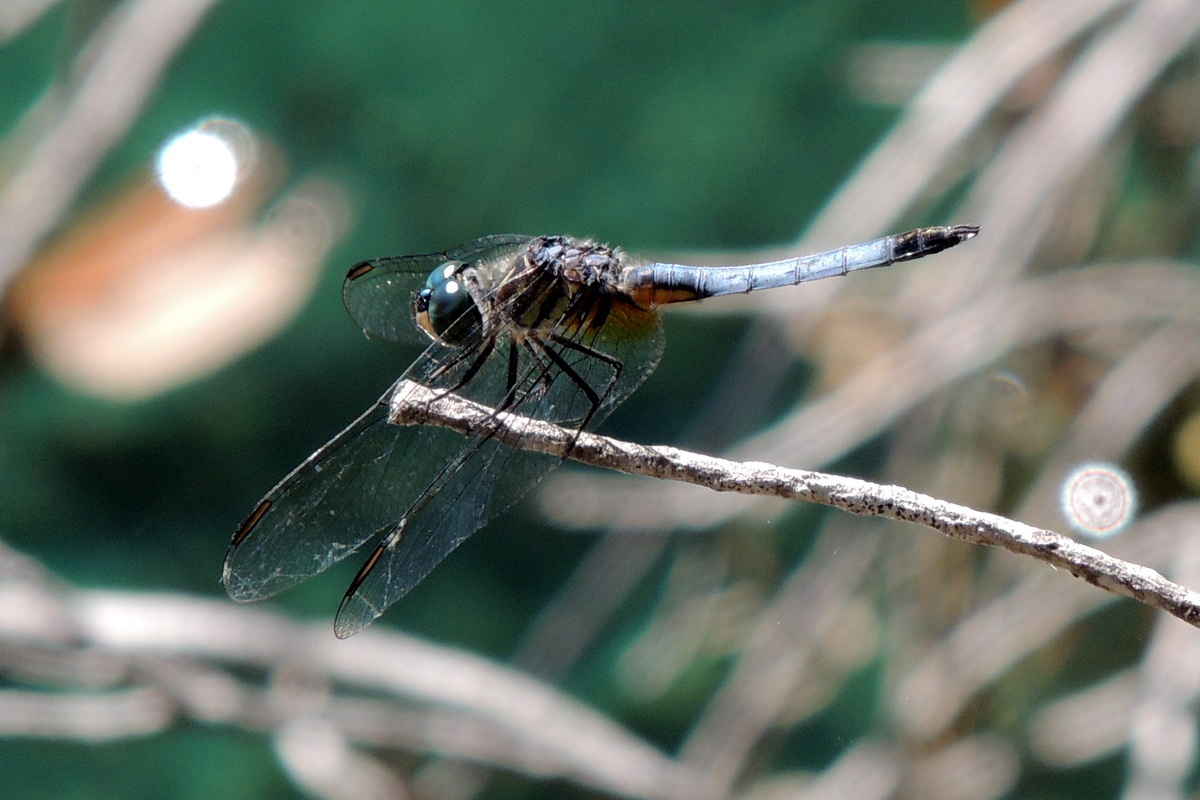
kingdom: Animalia
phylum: Arthropoda
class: Insecta
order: Odonata
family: Libellulidae
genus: Pachydiplax
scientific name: Pachydiplax longipennis
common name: Blue dasher
